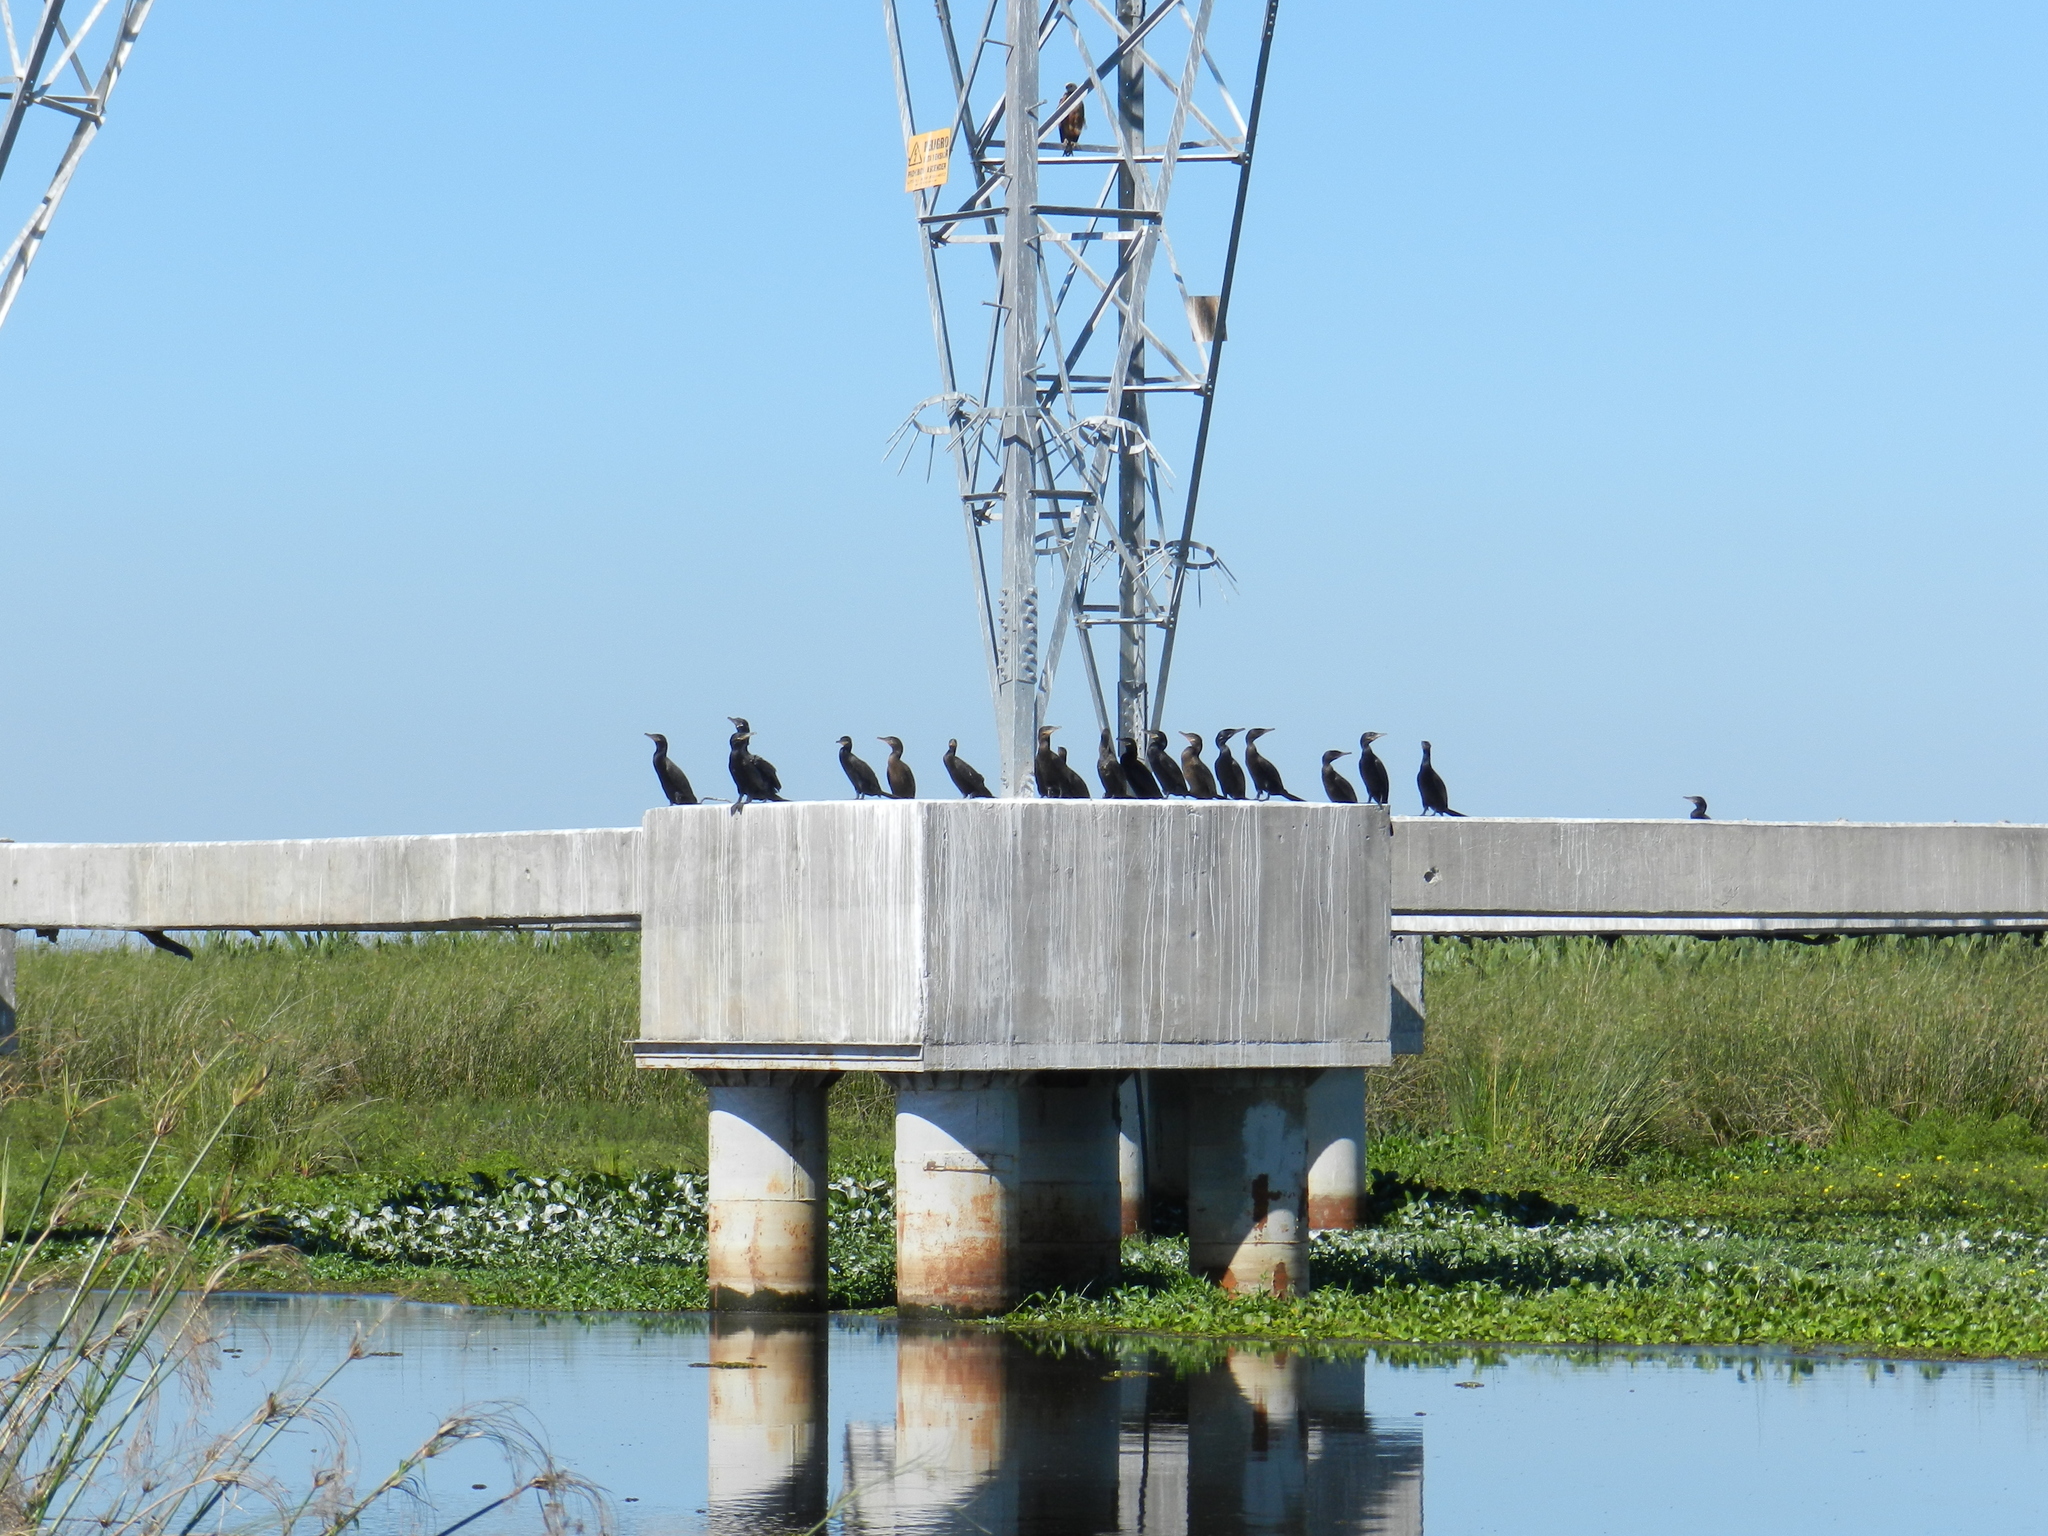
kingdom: Animalia
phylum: Chordata
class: Aves
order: Suliformes
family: Phalacrocoracidae
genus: Phalacrocorax
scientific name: Phalacrocorax brasilianus
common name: Neotropic cormorant
